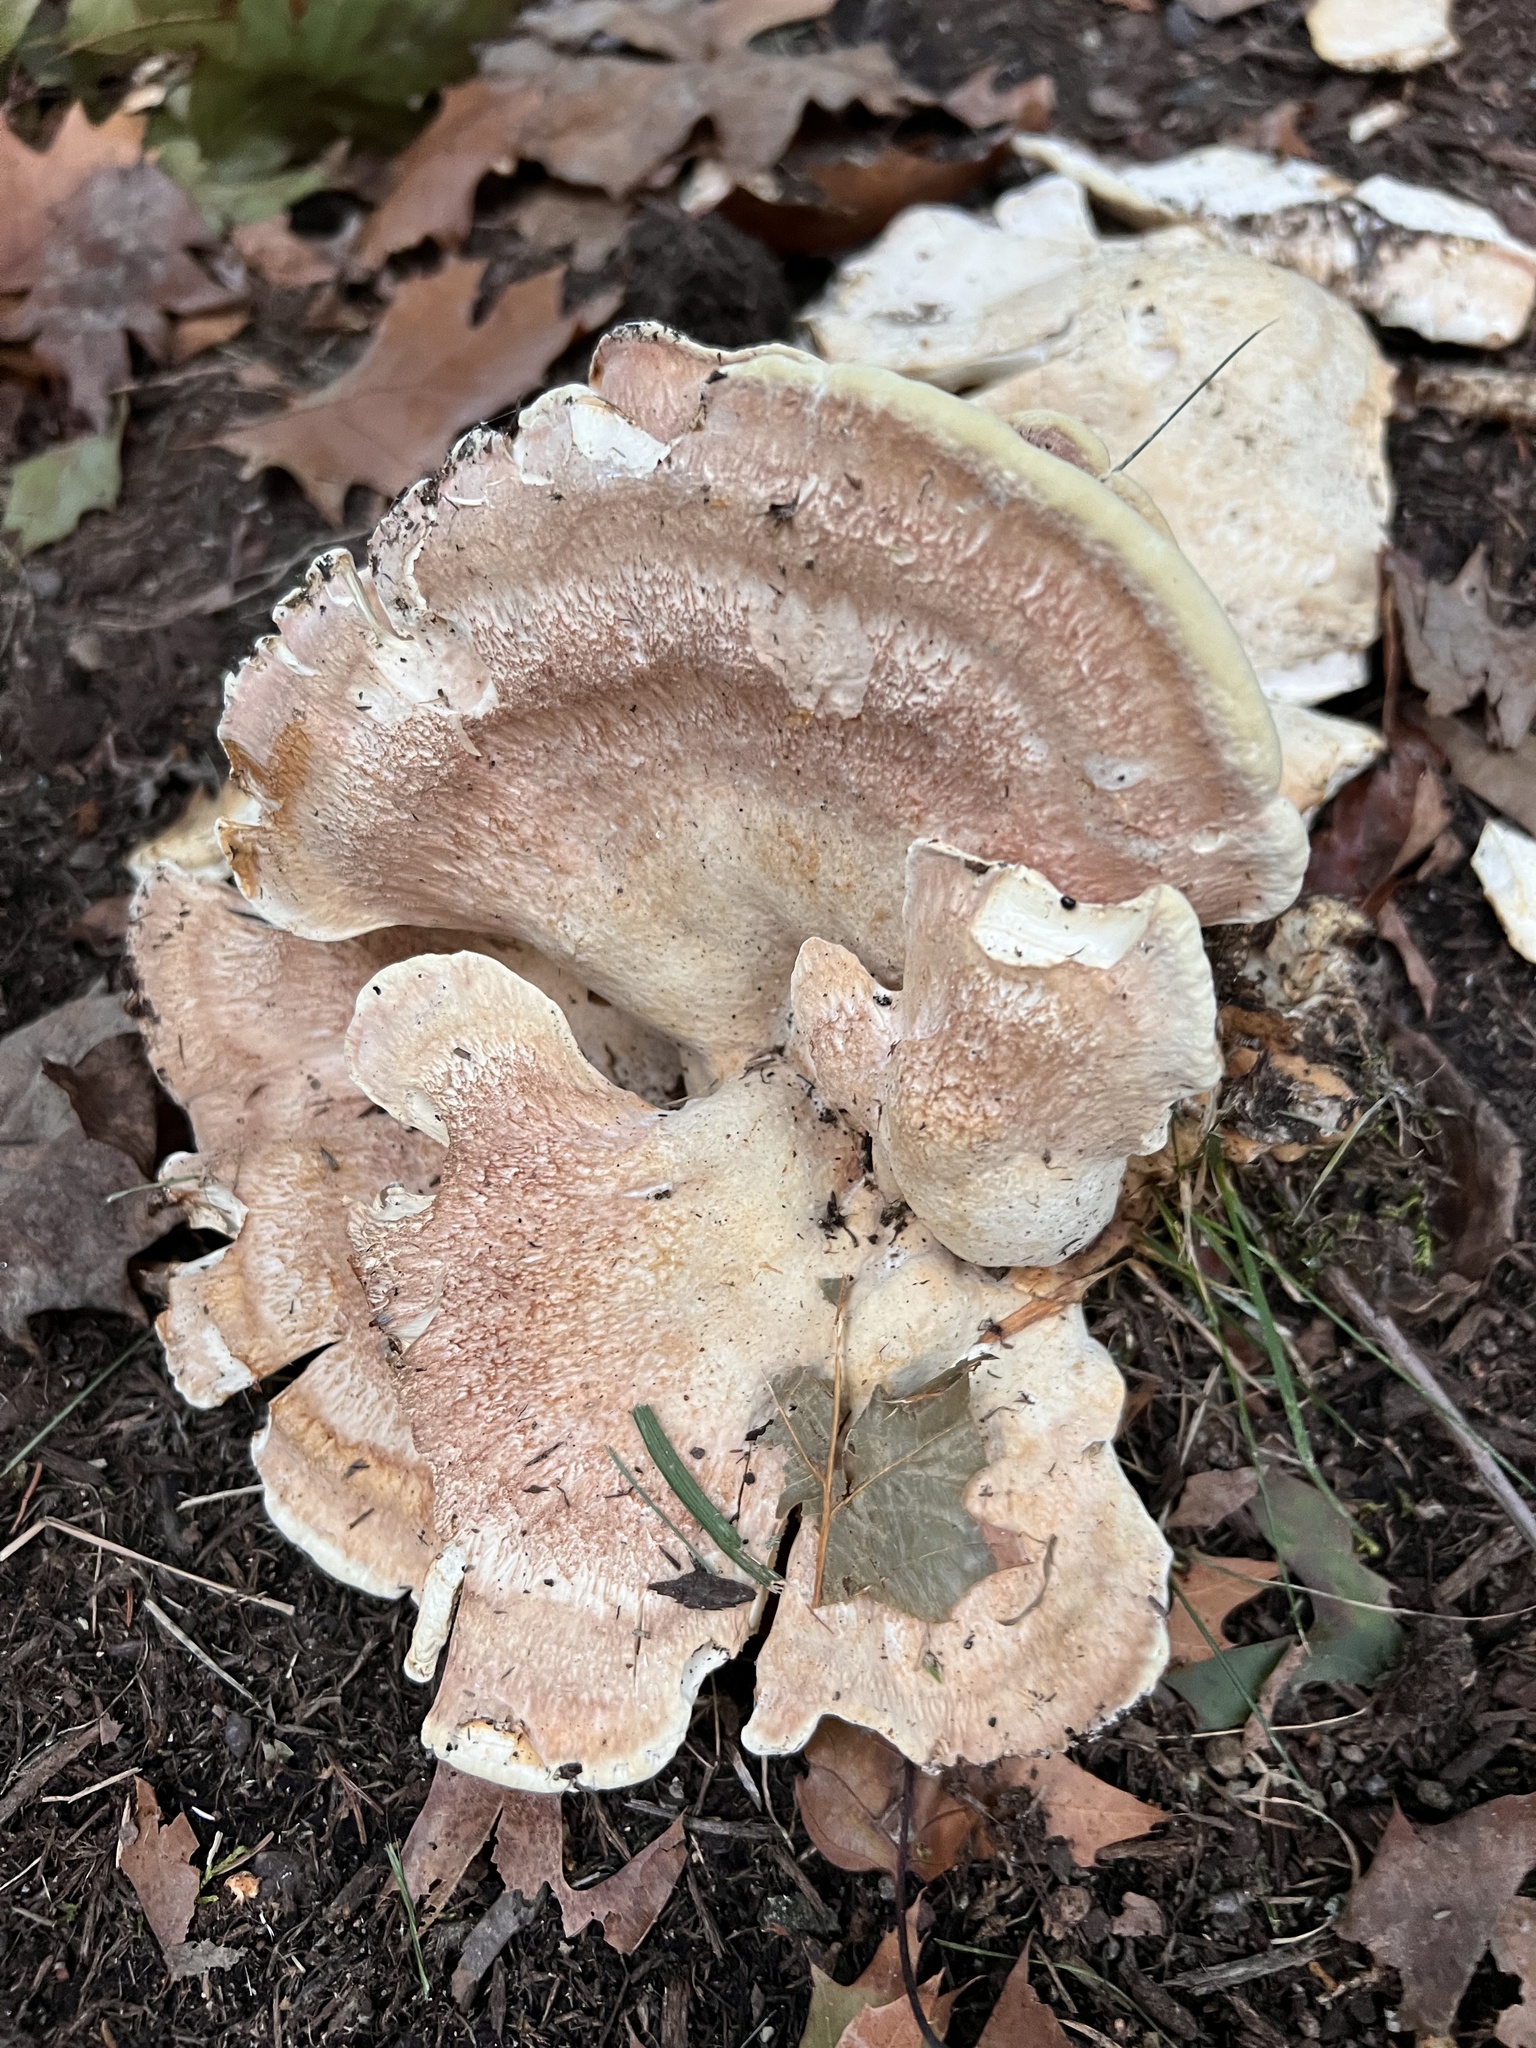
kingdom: Fungi
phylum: Basidiomycota
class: Agaricomycetes
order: Russulales
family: Bondarzewiaceae
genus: Bondarzewia
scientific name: Bondarzewia berkeleyi
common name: Berkeley's polypore
